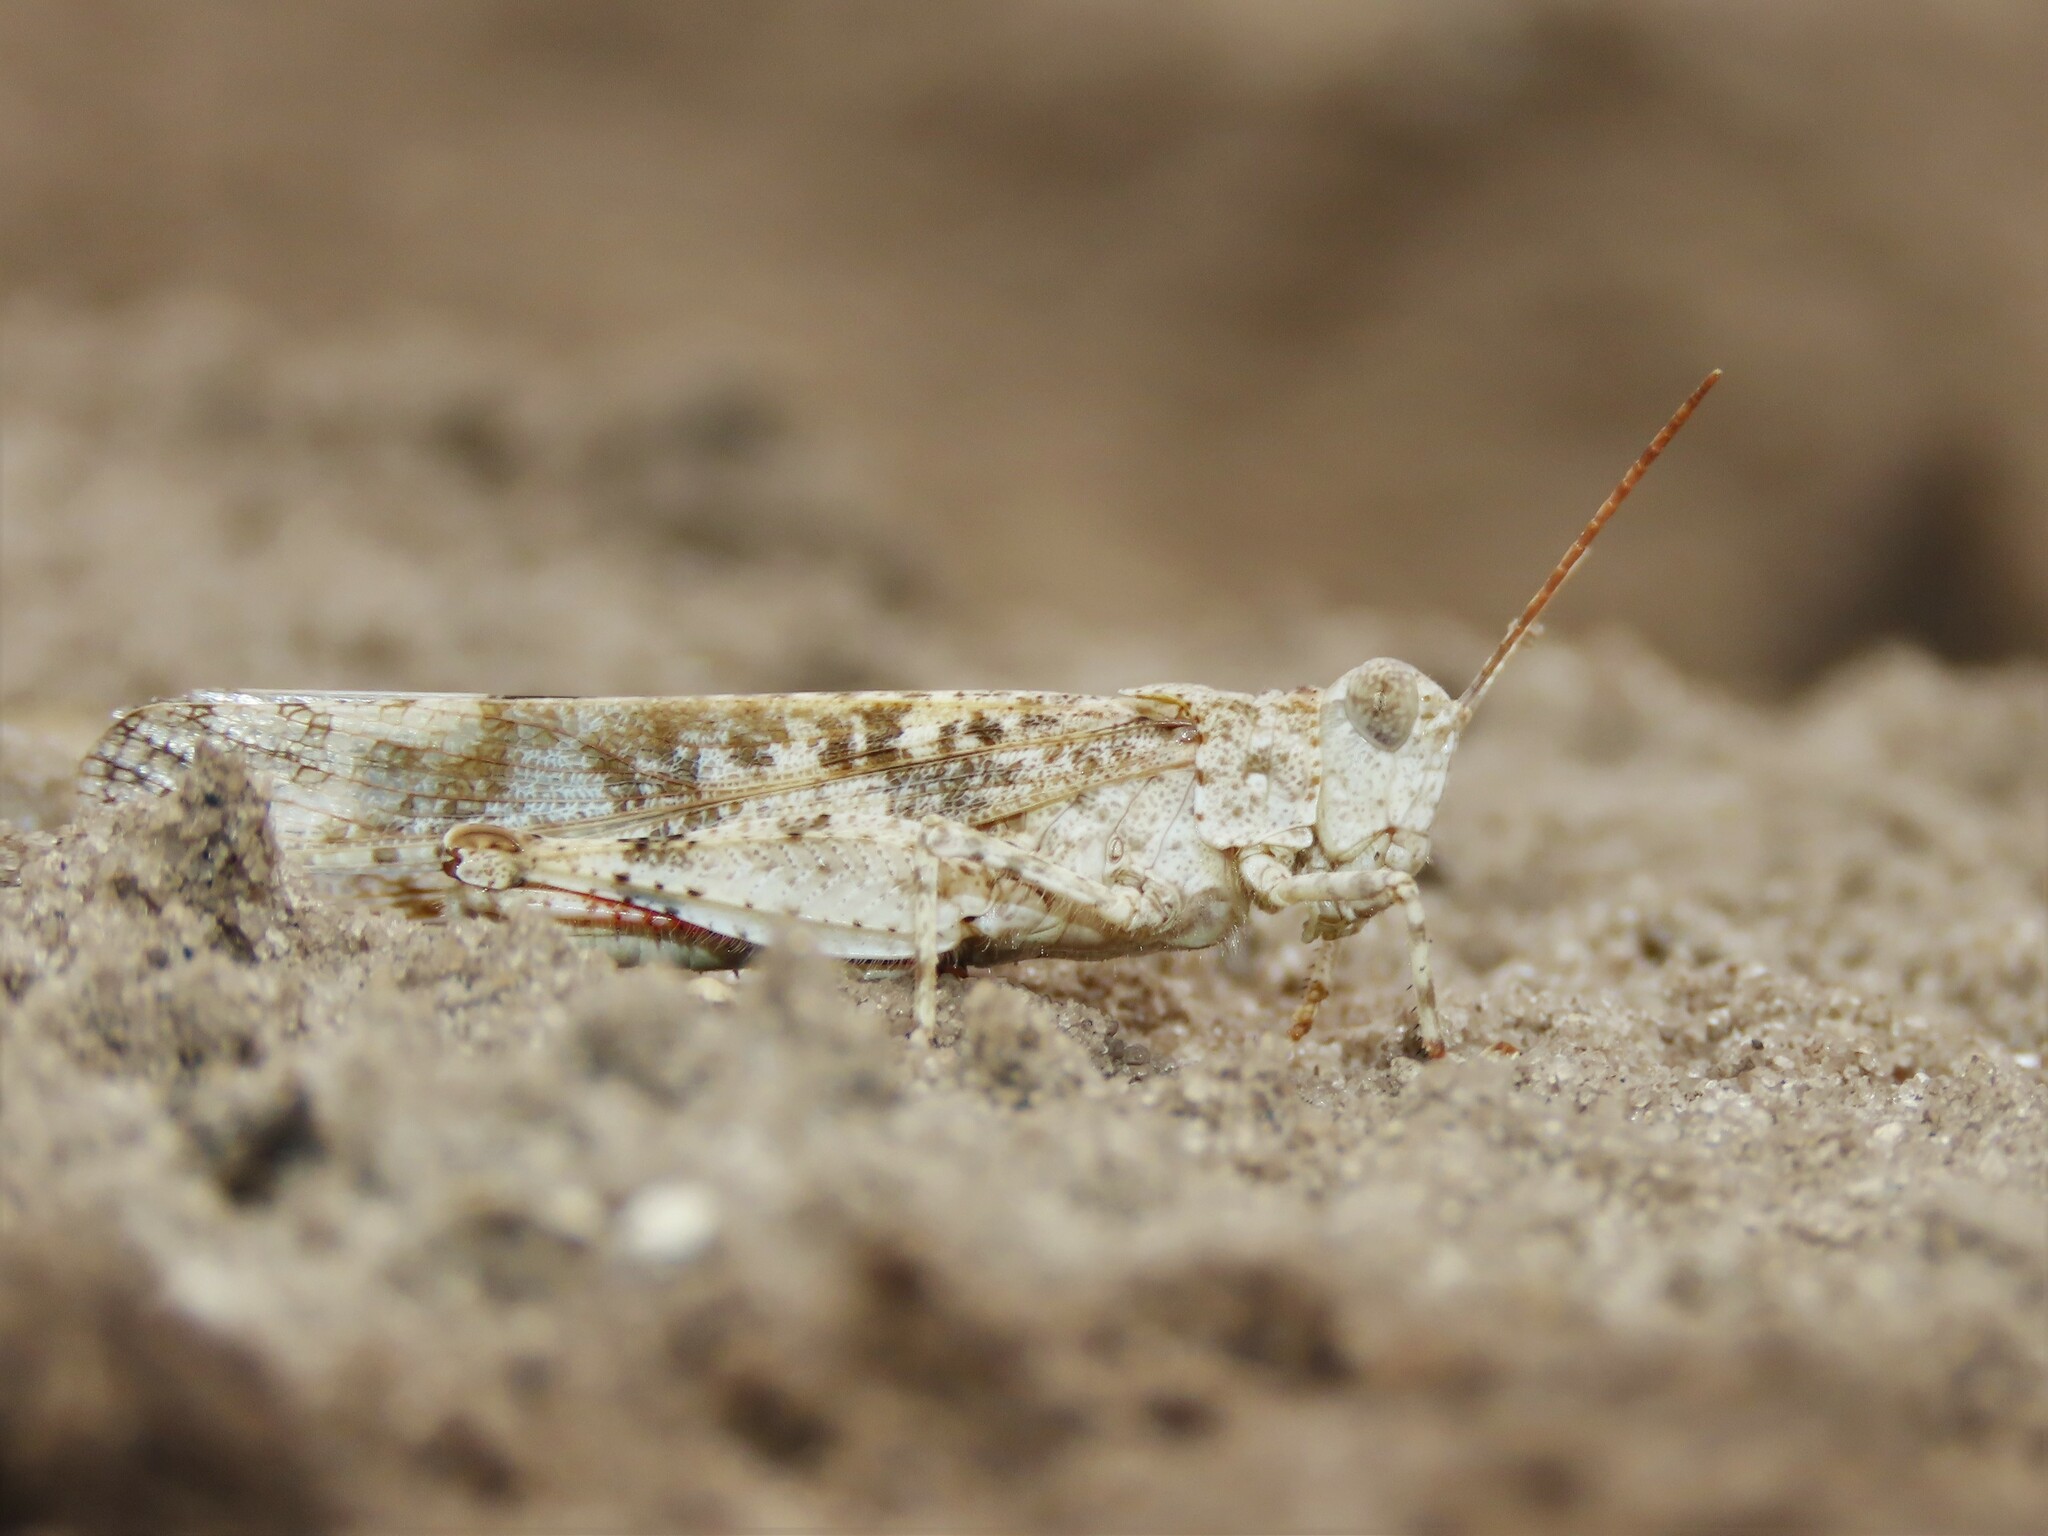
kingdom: Animalia
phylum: Arthropoda
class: Insecta
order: Orthoptera
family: Acrididae
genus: Trimerotropis
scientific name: Trimerotropis maritima
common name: Seaside locust
